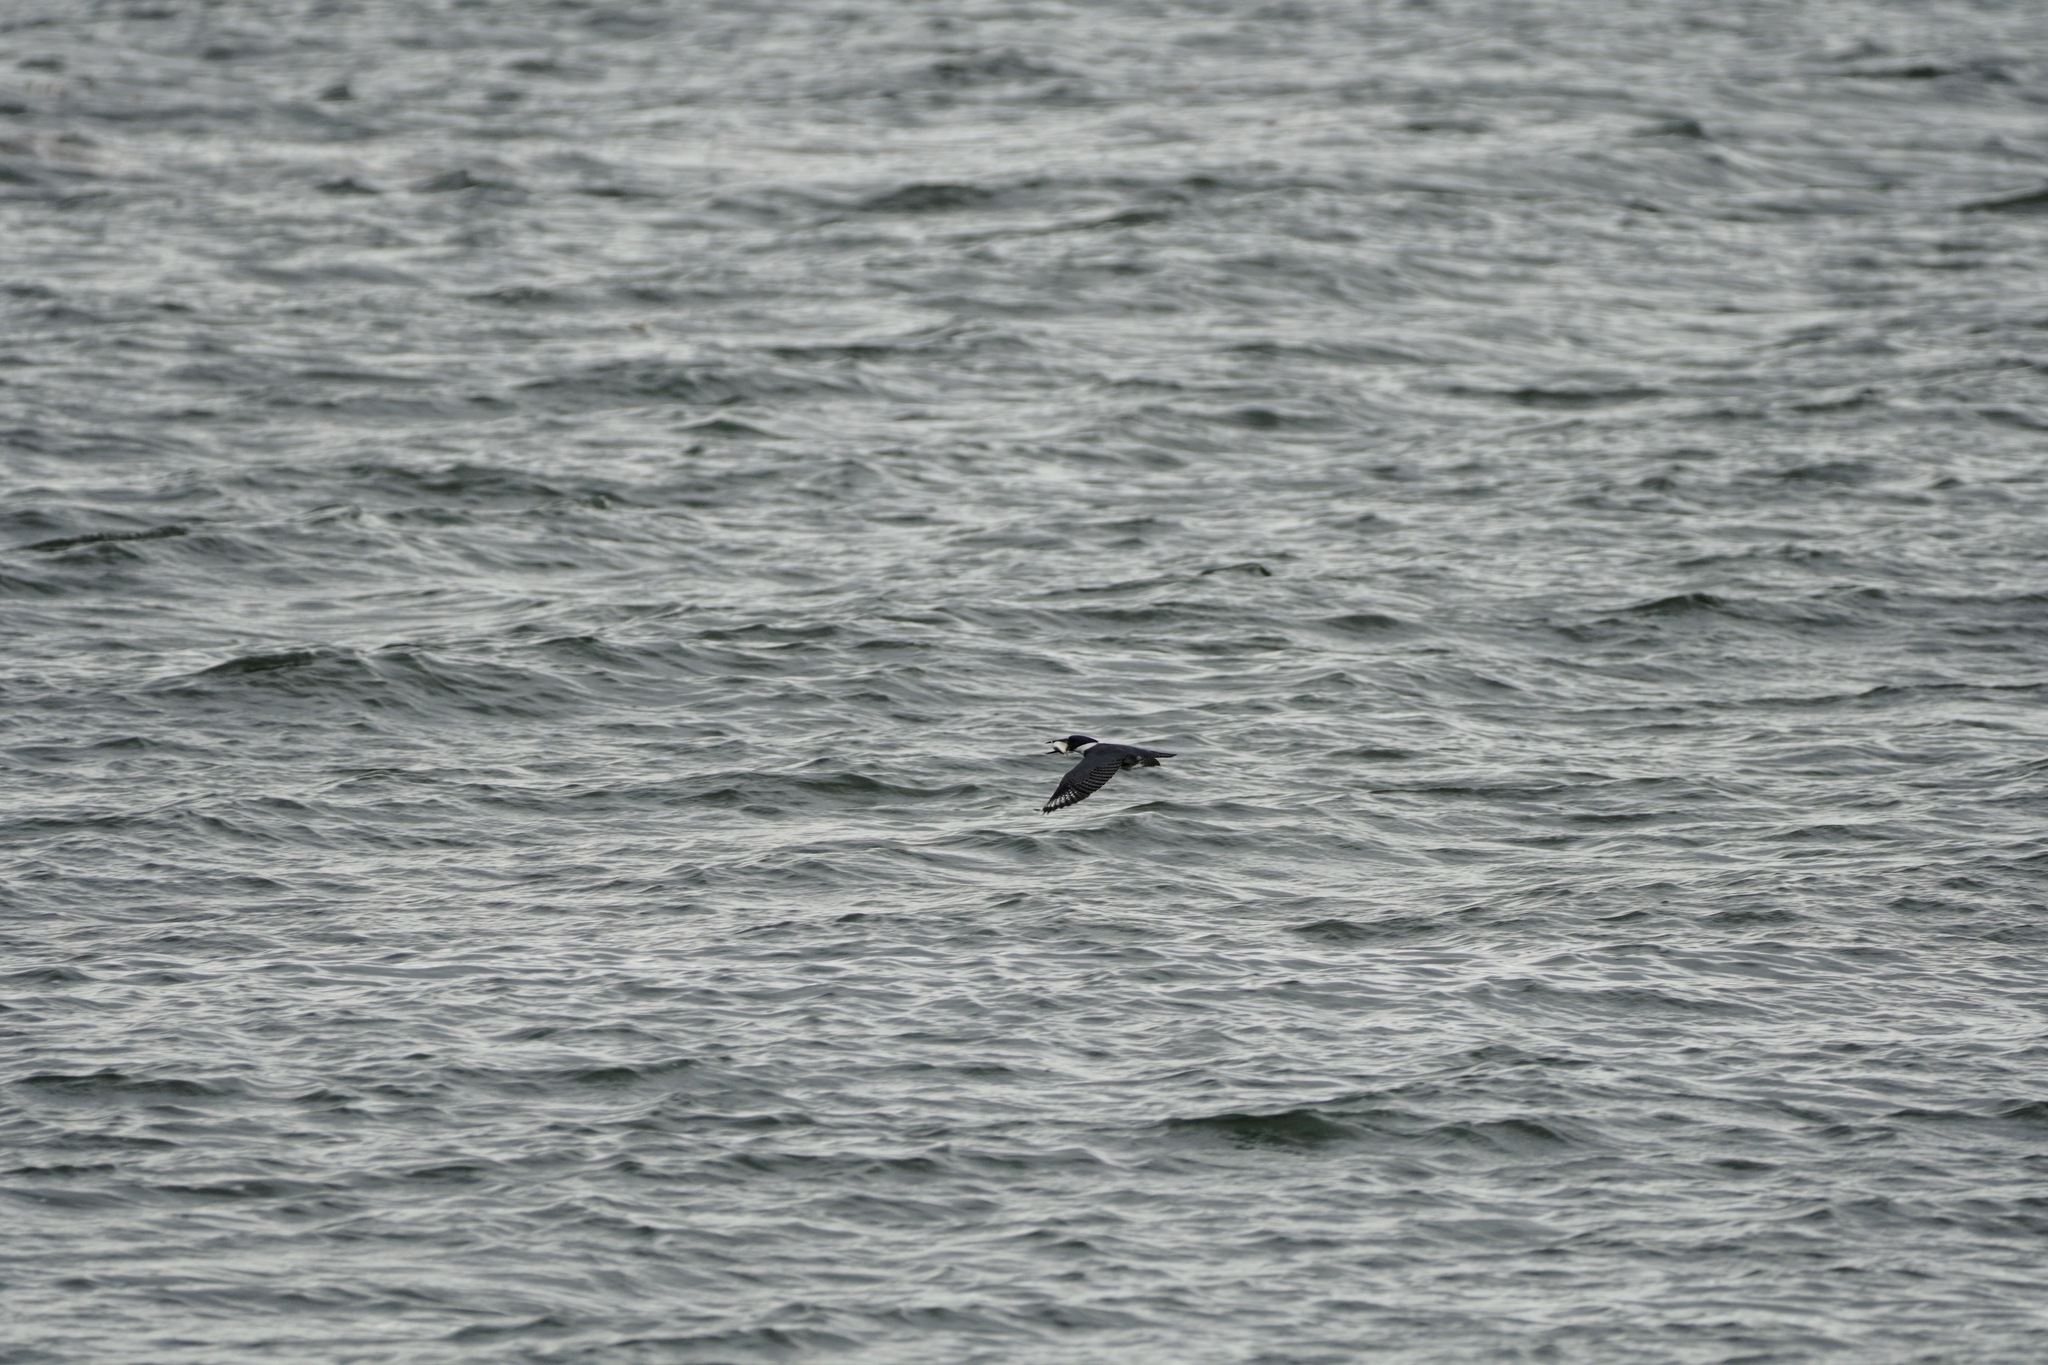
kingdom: Animalia
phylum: Chordata
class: Aves
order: Coraciiformes
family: Alcedinidae
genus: Megaceryle
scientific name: Megaceryle alcyon
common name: Belted kingfisher
